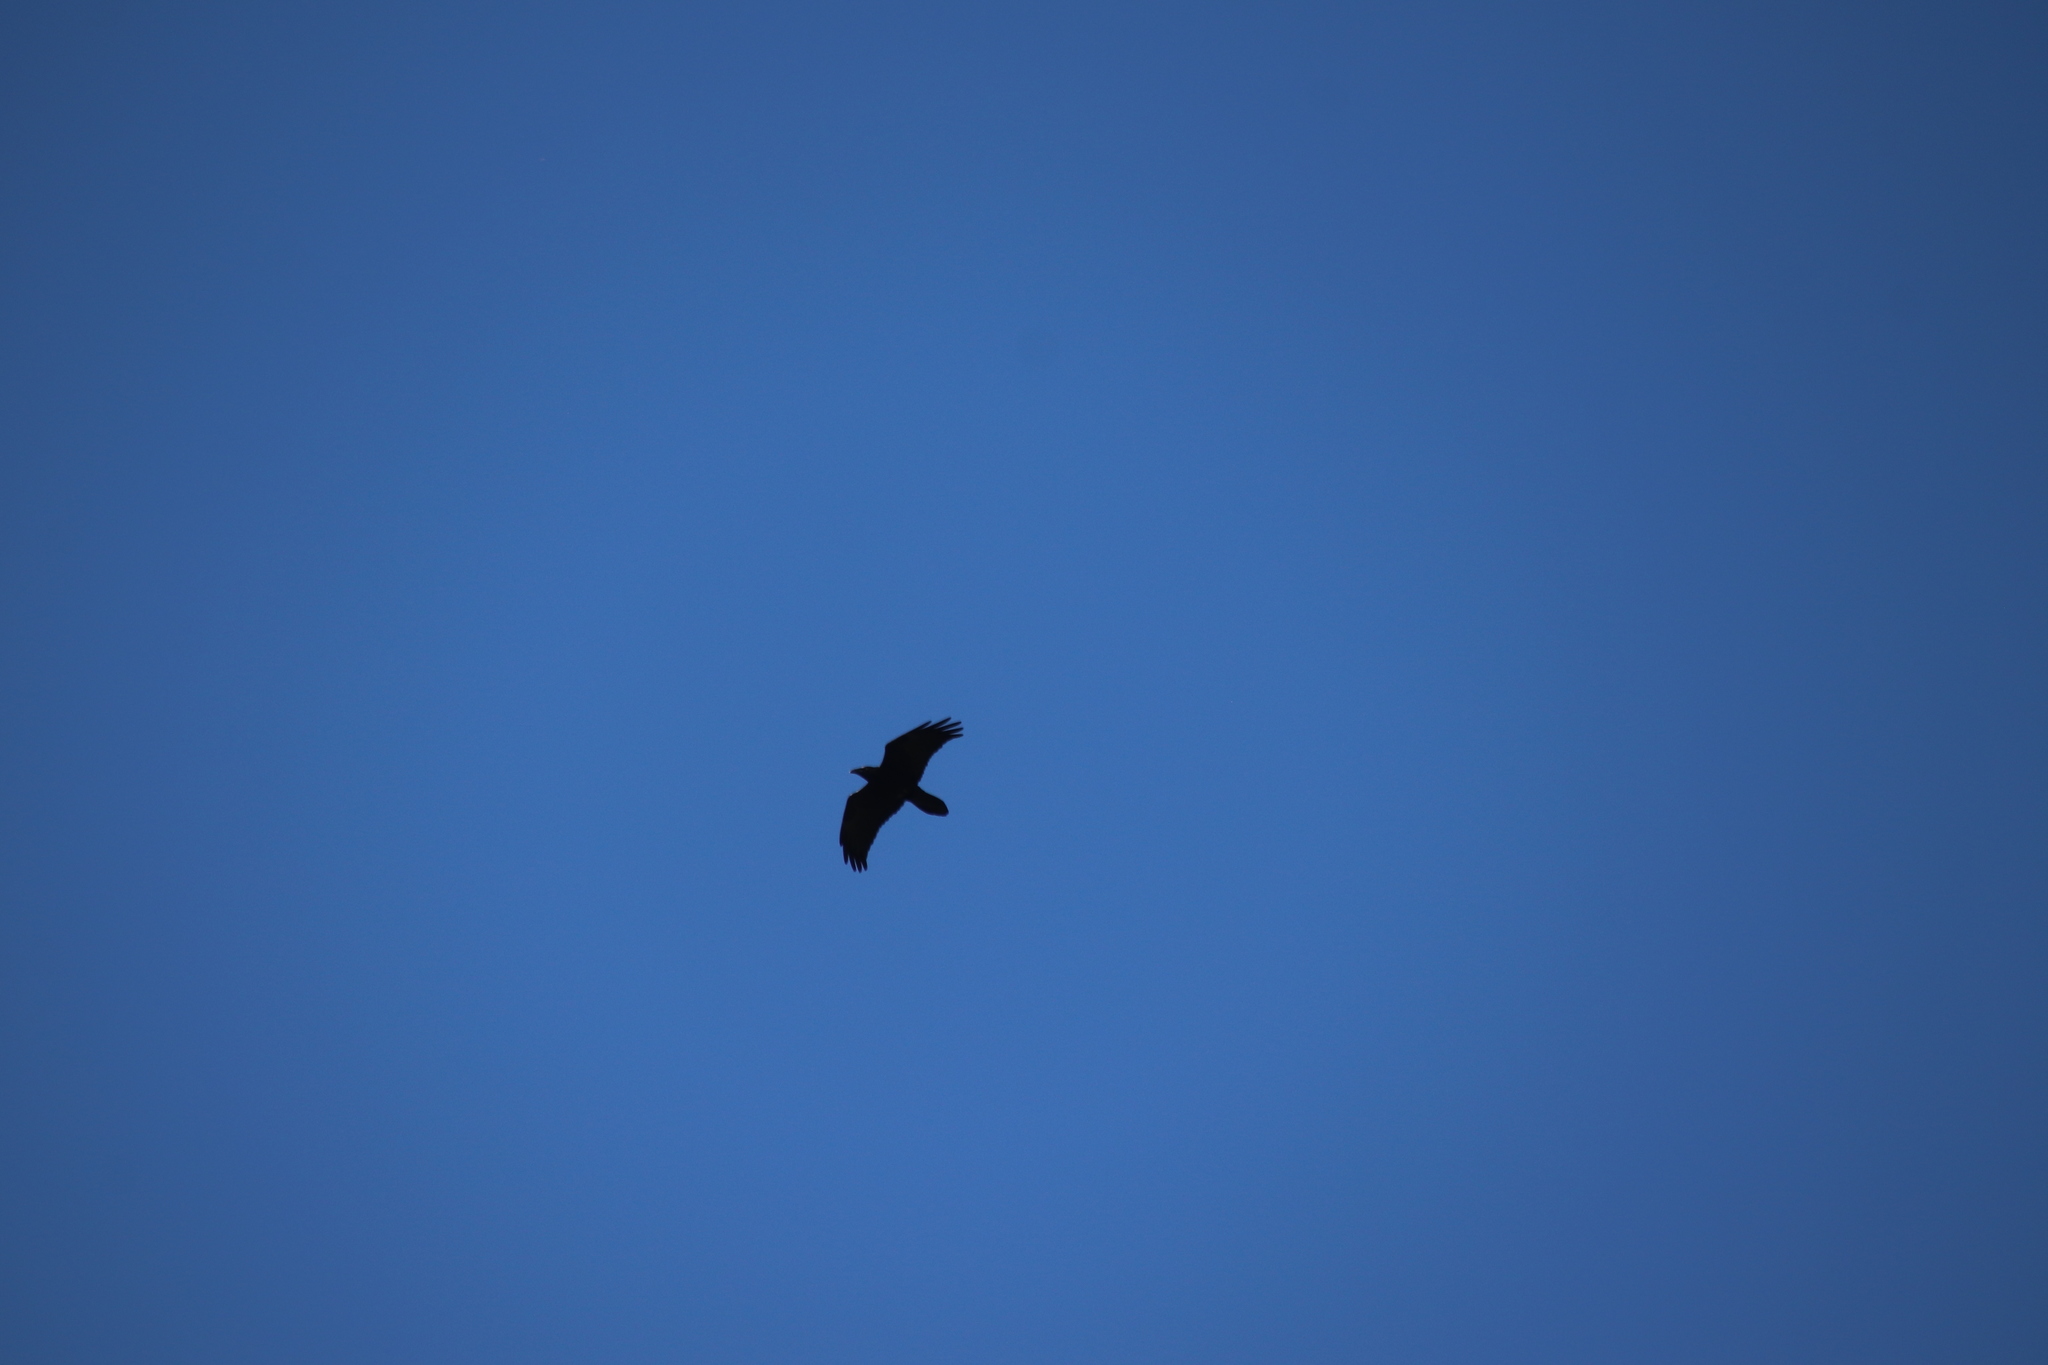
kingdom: Animalia
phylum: Chordata
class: Aves
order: Passeriformes
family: Corvidae
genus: Corvus
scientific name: Corvus corax
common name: Common raven
